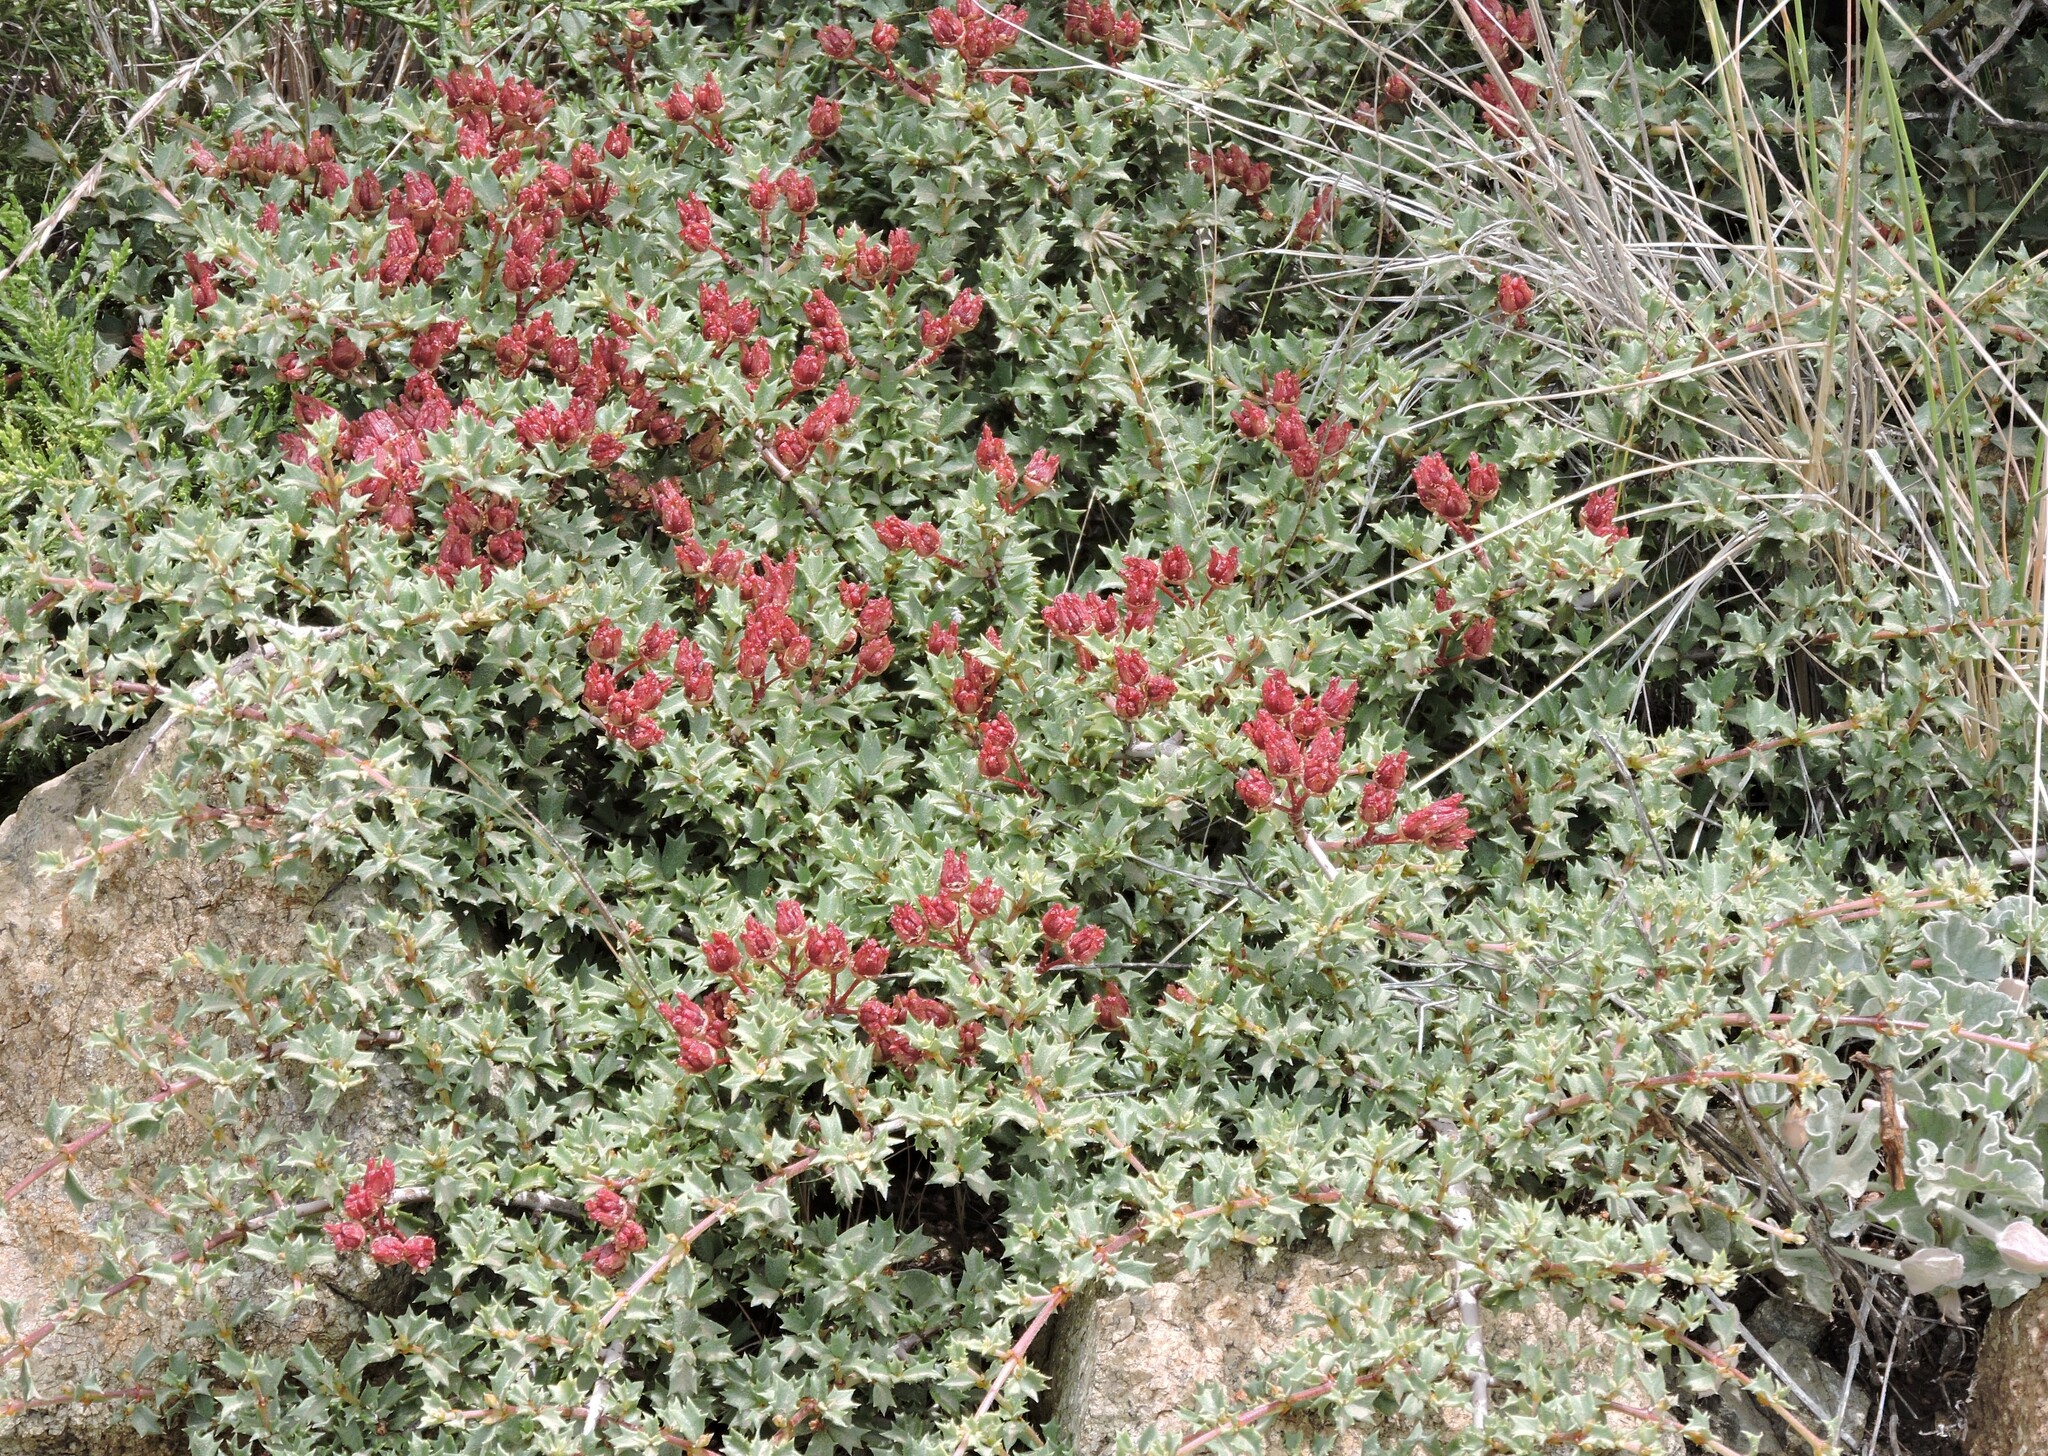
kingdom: Plantae
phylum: Tracheophyta
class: Magnoliopsida
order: Rosales
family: Rhamnaceae
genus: Ceanothus
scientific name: Ceanothus jepsonii
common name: Muskbrush
